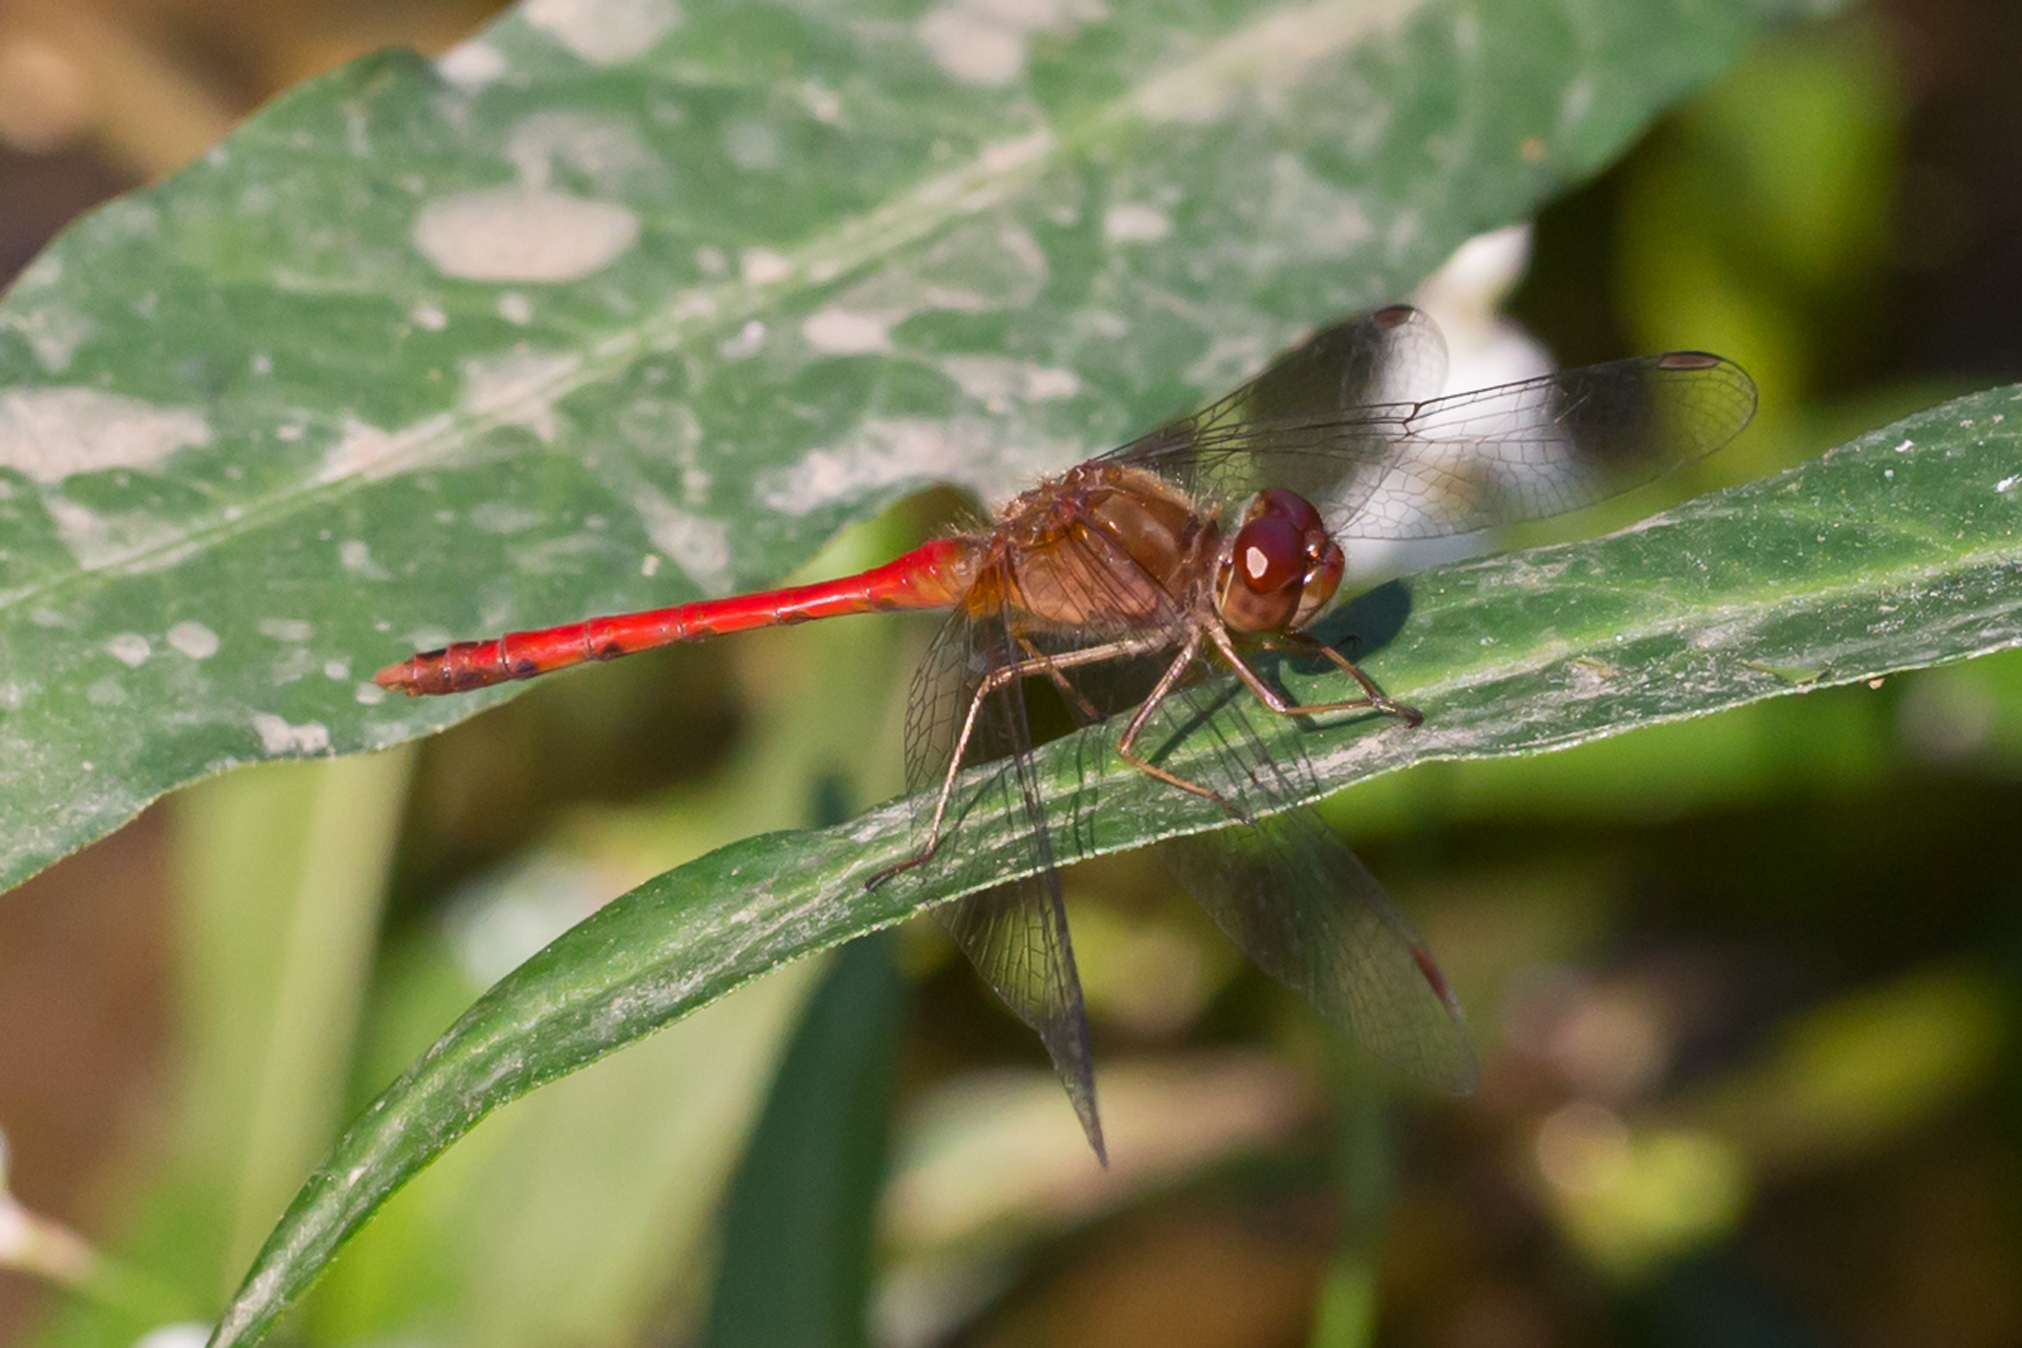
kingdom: Animalia
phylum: Arthropoda
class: Insecta
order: Odonata
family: Libellulidae
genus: Sympetrum
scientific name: Sympetrum vicinum
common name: Autumn meadowhawk
